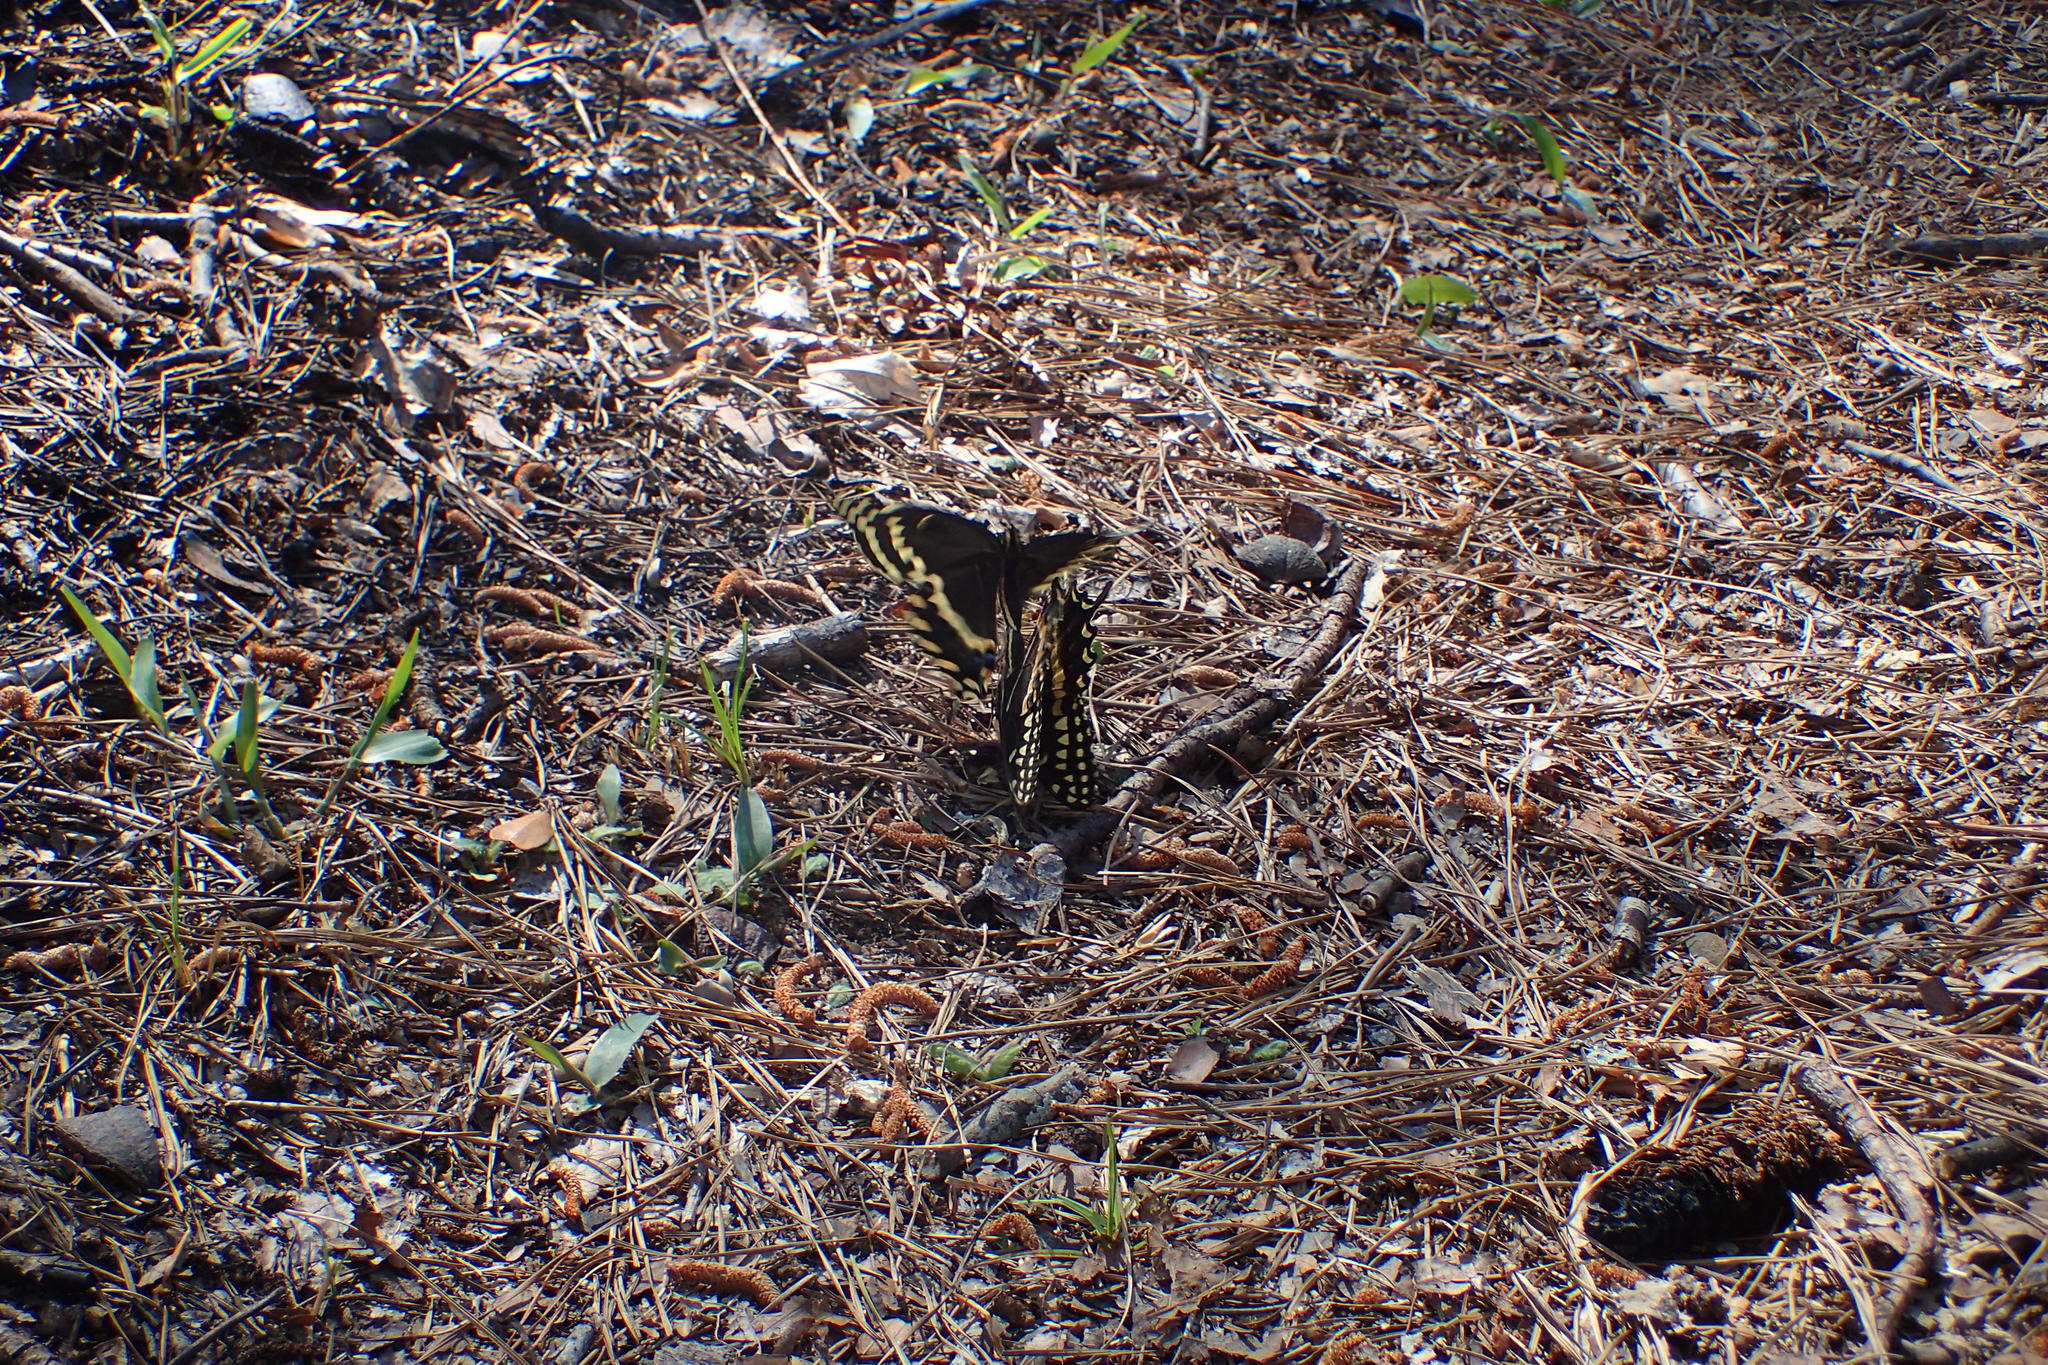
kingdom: Animalia
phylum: Arthropoda
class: Insecta
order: Lepidoptera
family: Papilionidae
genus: Papilio
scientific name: Papilio palamedes
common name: Palamedes swallowtail
